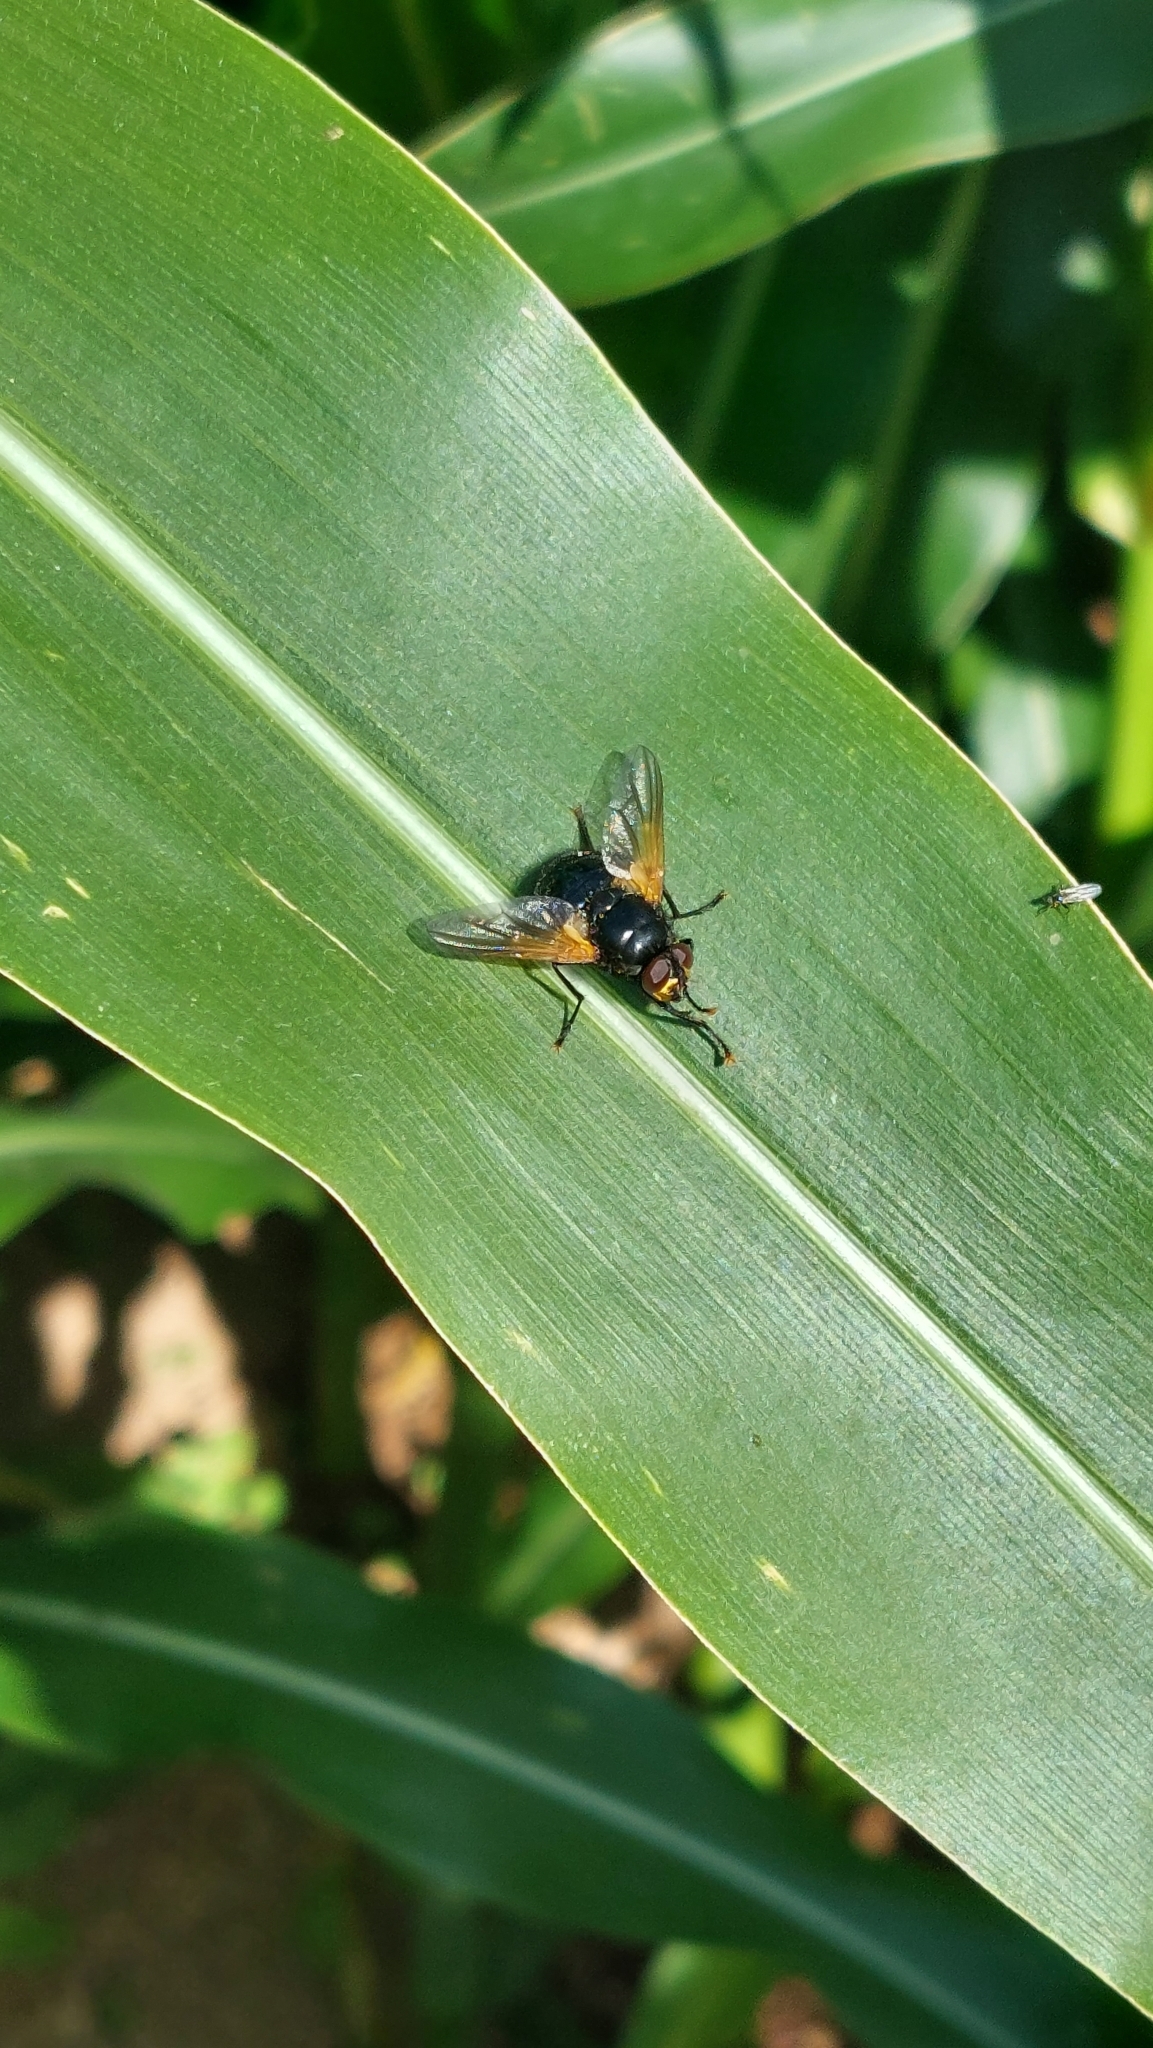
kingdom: Animalia
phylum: Arthropoda
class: Insecta
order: Diptera
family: Muscidae
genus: Mesembrina
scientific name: Mesembrina meridiana
